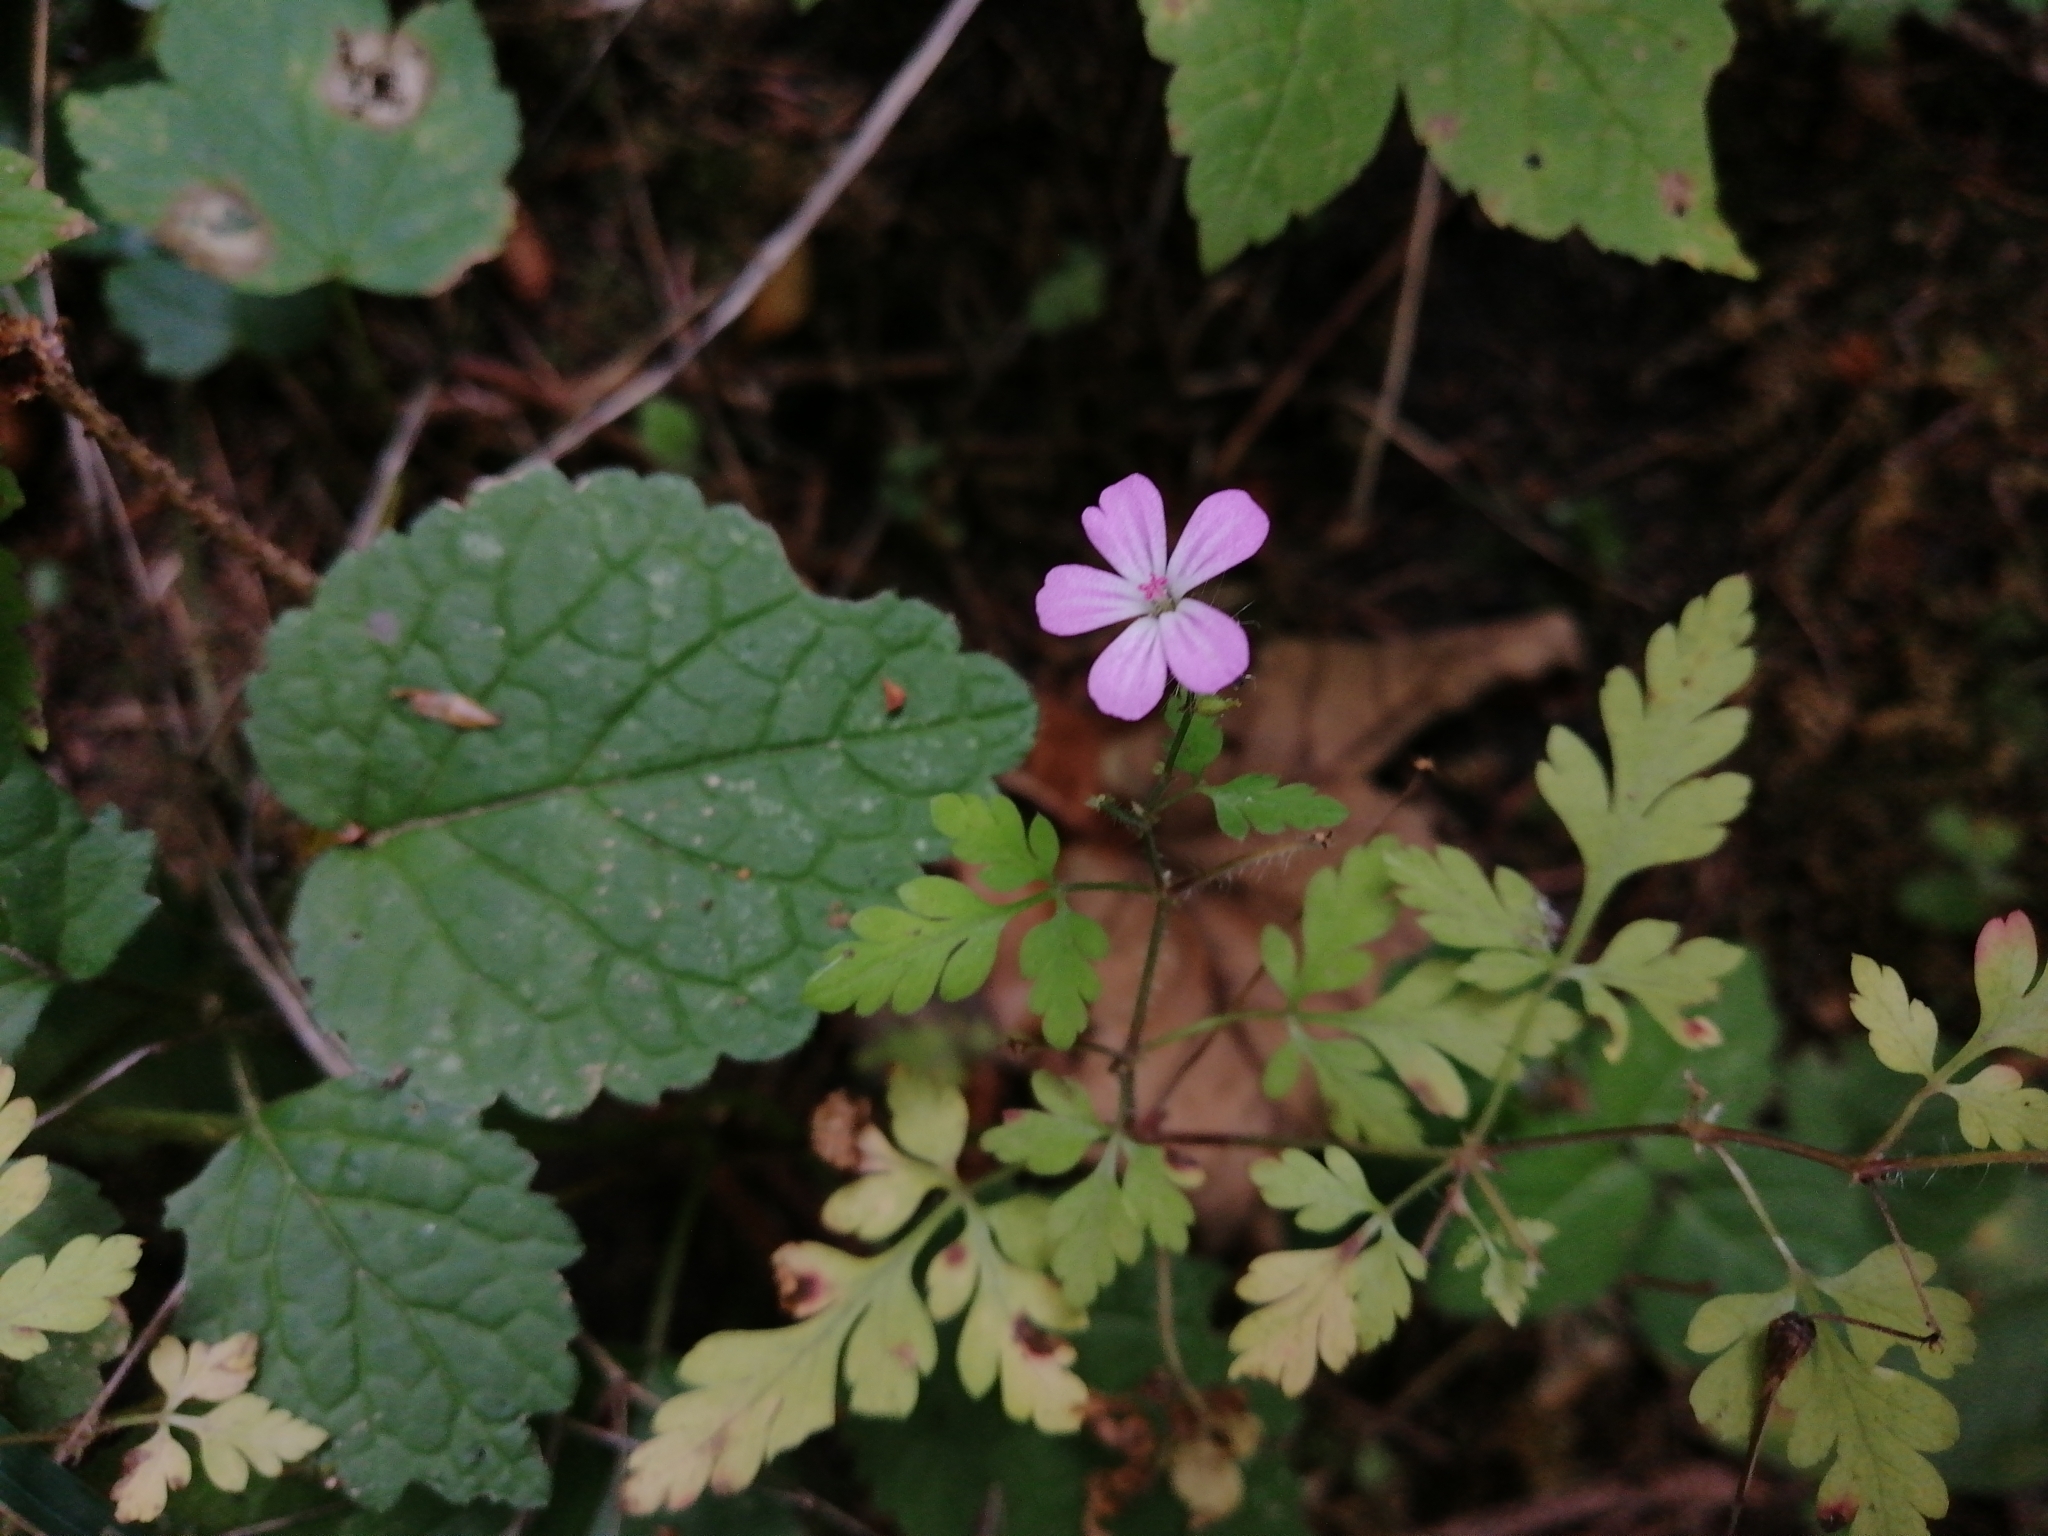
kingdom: Plantae
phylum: Tracheophyta
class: Magnoliopsida
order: Geraniales
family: Geraniaceae
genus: Geranium
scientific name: Geranium robertianum
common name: Herb-robert
